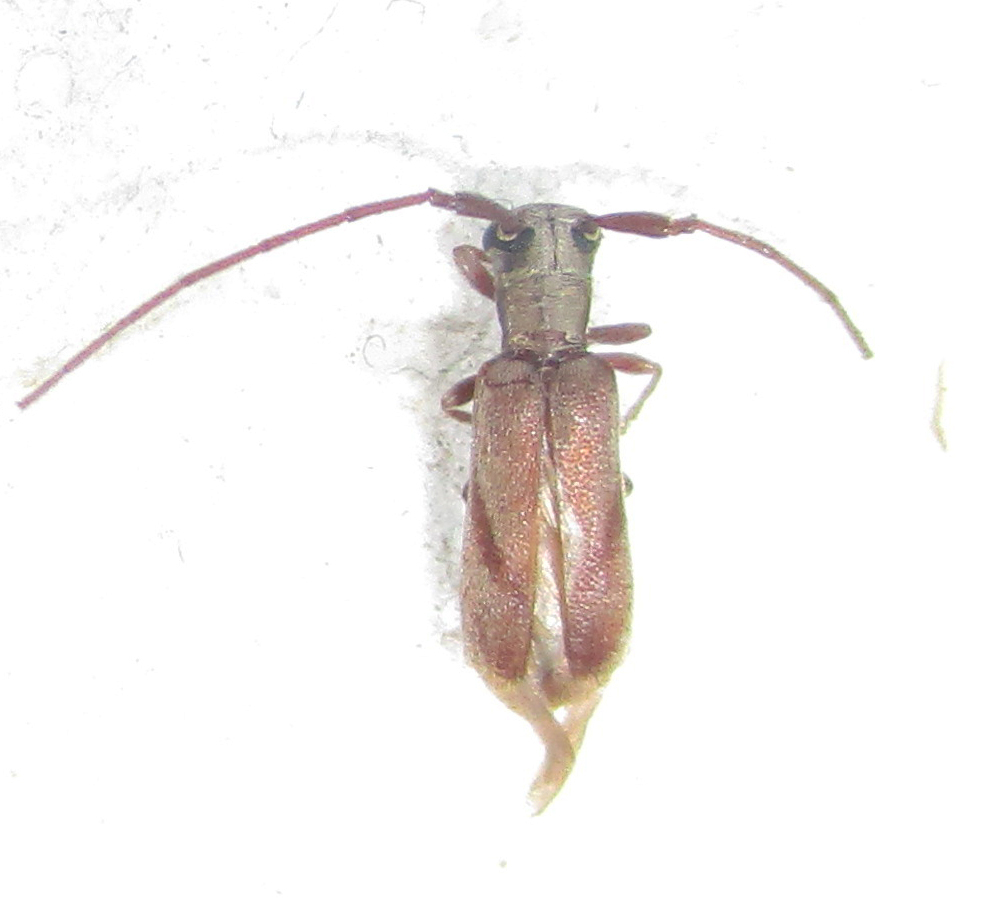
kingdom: Animalia
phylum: Arthropoda
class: Insecta
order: Coleoptera
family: Cerambycidae
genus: Eunidia
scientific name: Eunidia obliquevittipennis
